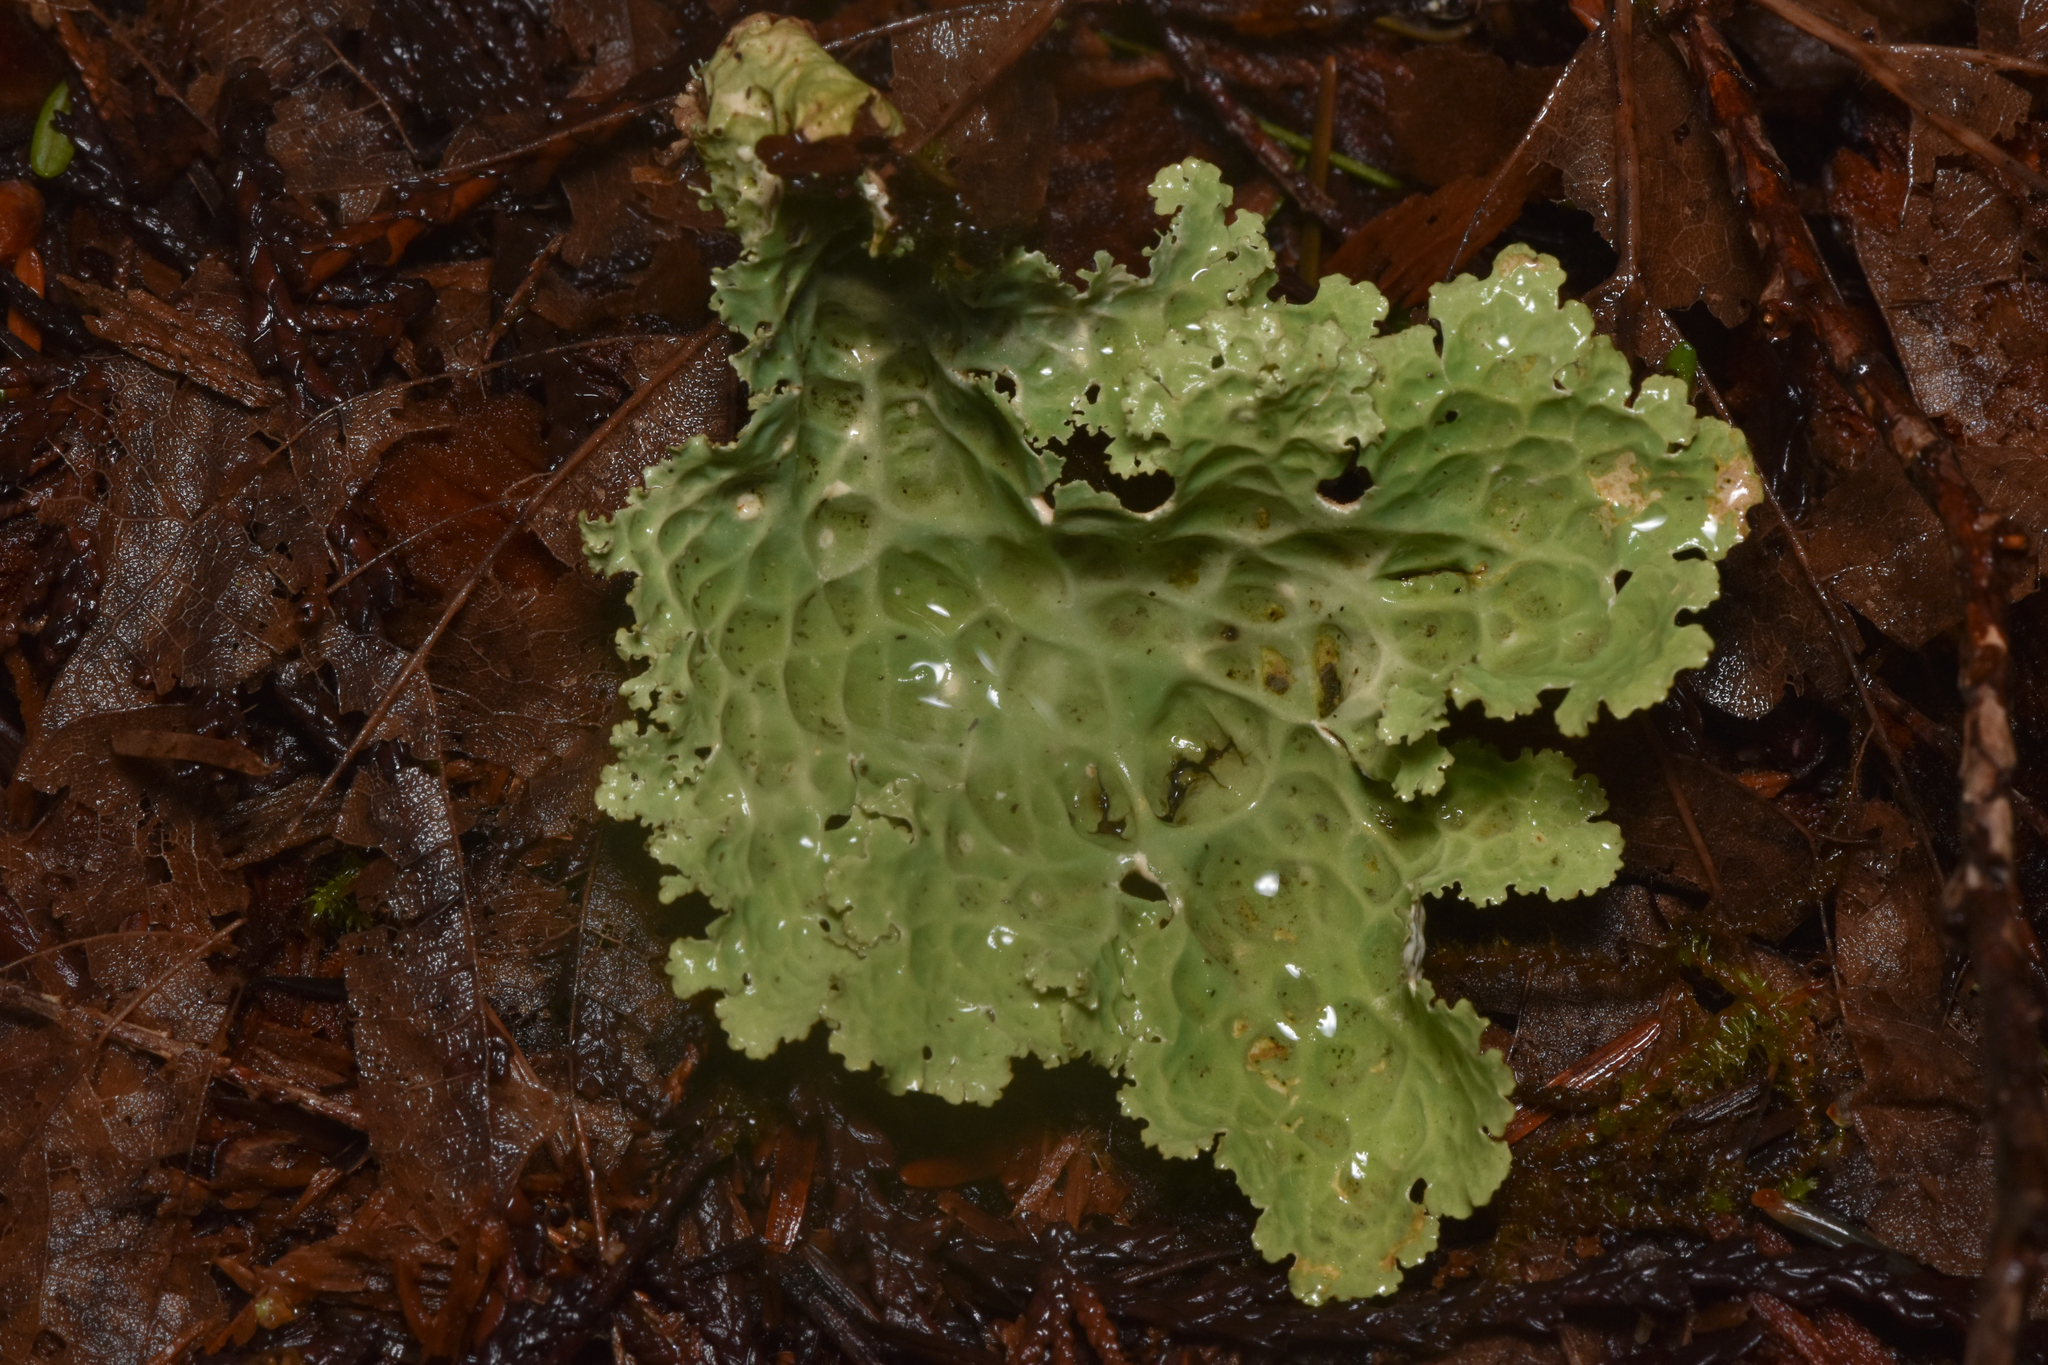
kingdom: Fungi
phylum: Ascomycota
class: Lecanoromycetes
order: Peltigerales
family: Lobariaceae
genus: Lobaria
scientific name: Lobaria oregana
